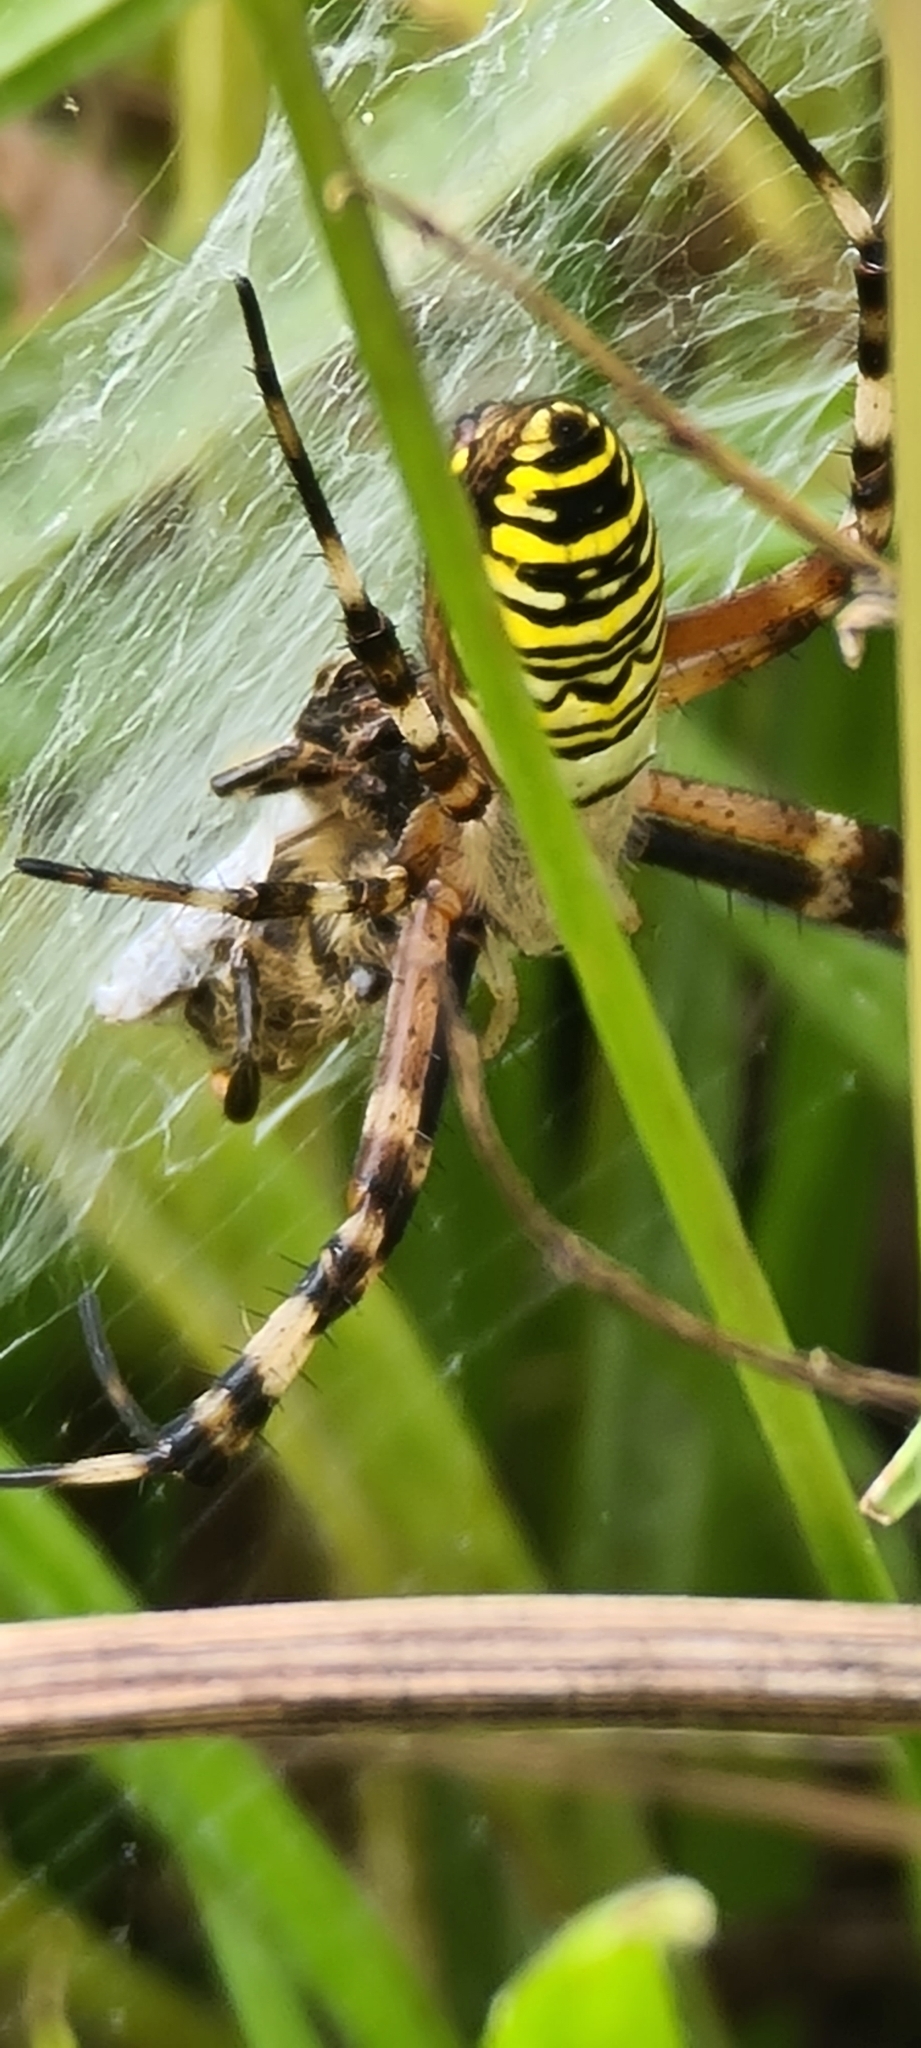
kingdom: Animalia
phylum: Arthropoda
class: Arachnida
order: Araneae
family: Araneidae
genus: Argiope
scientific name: Argiope bruennichi
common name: Wasp spider
